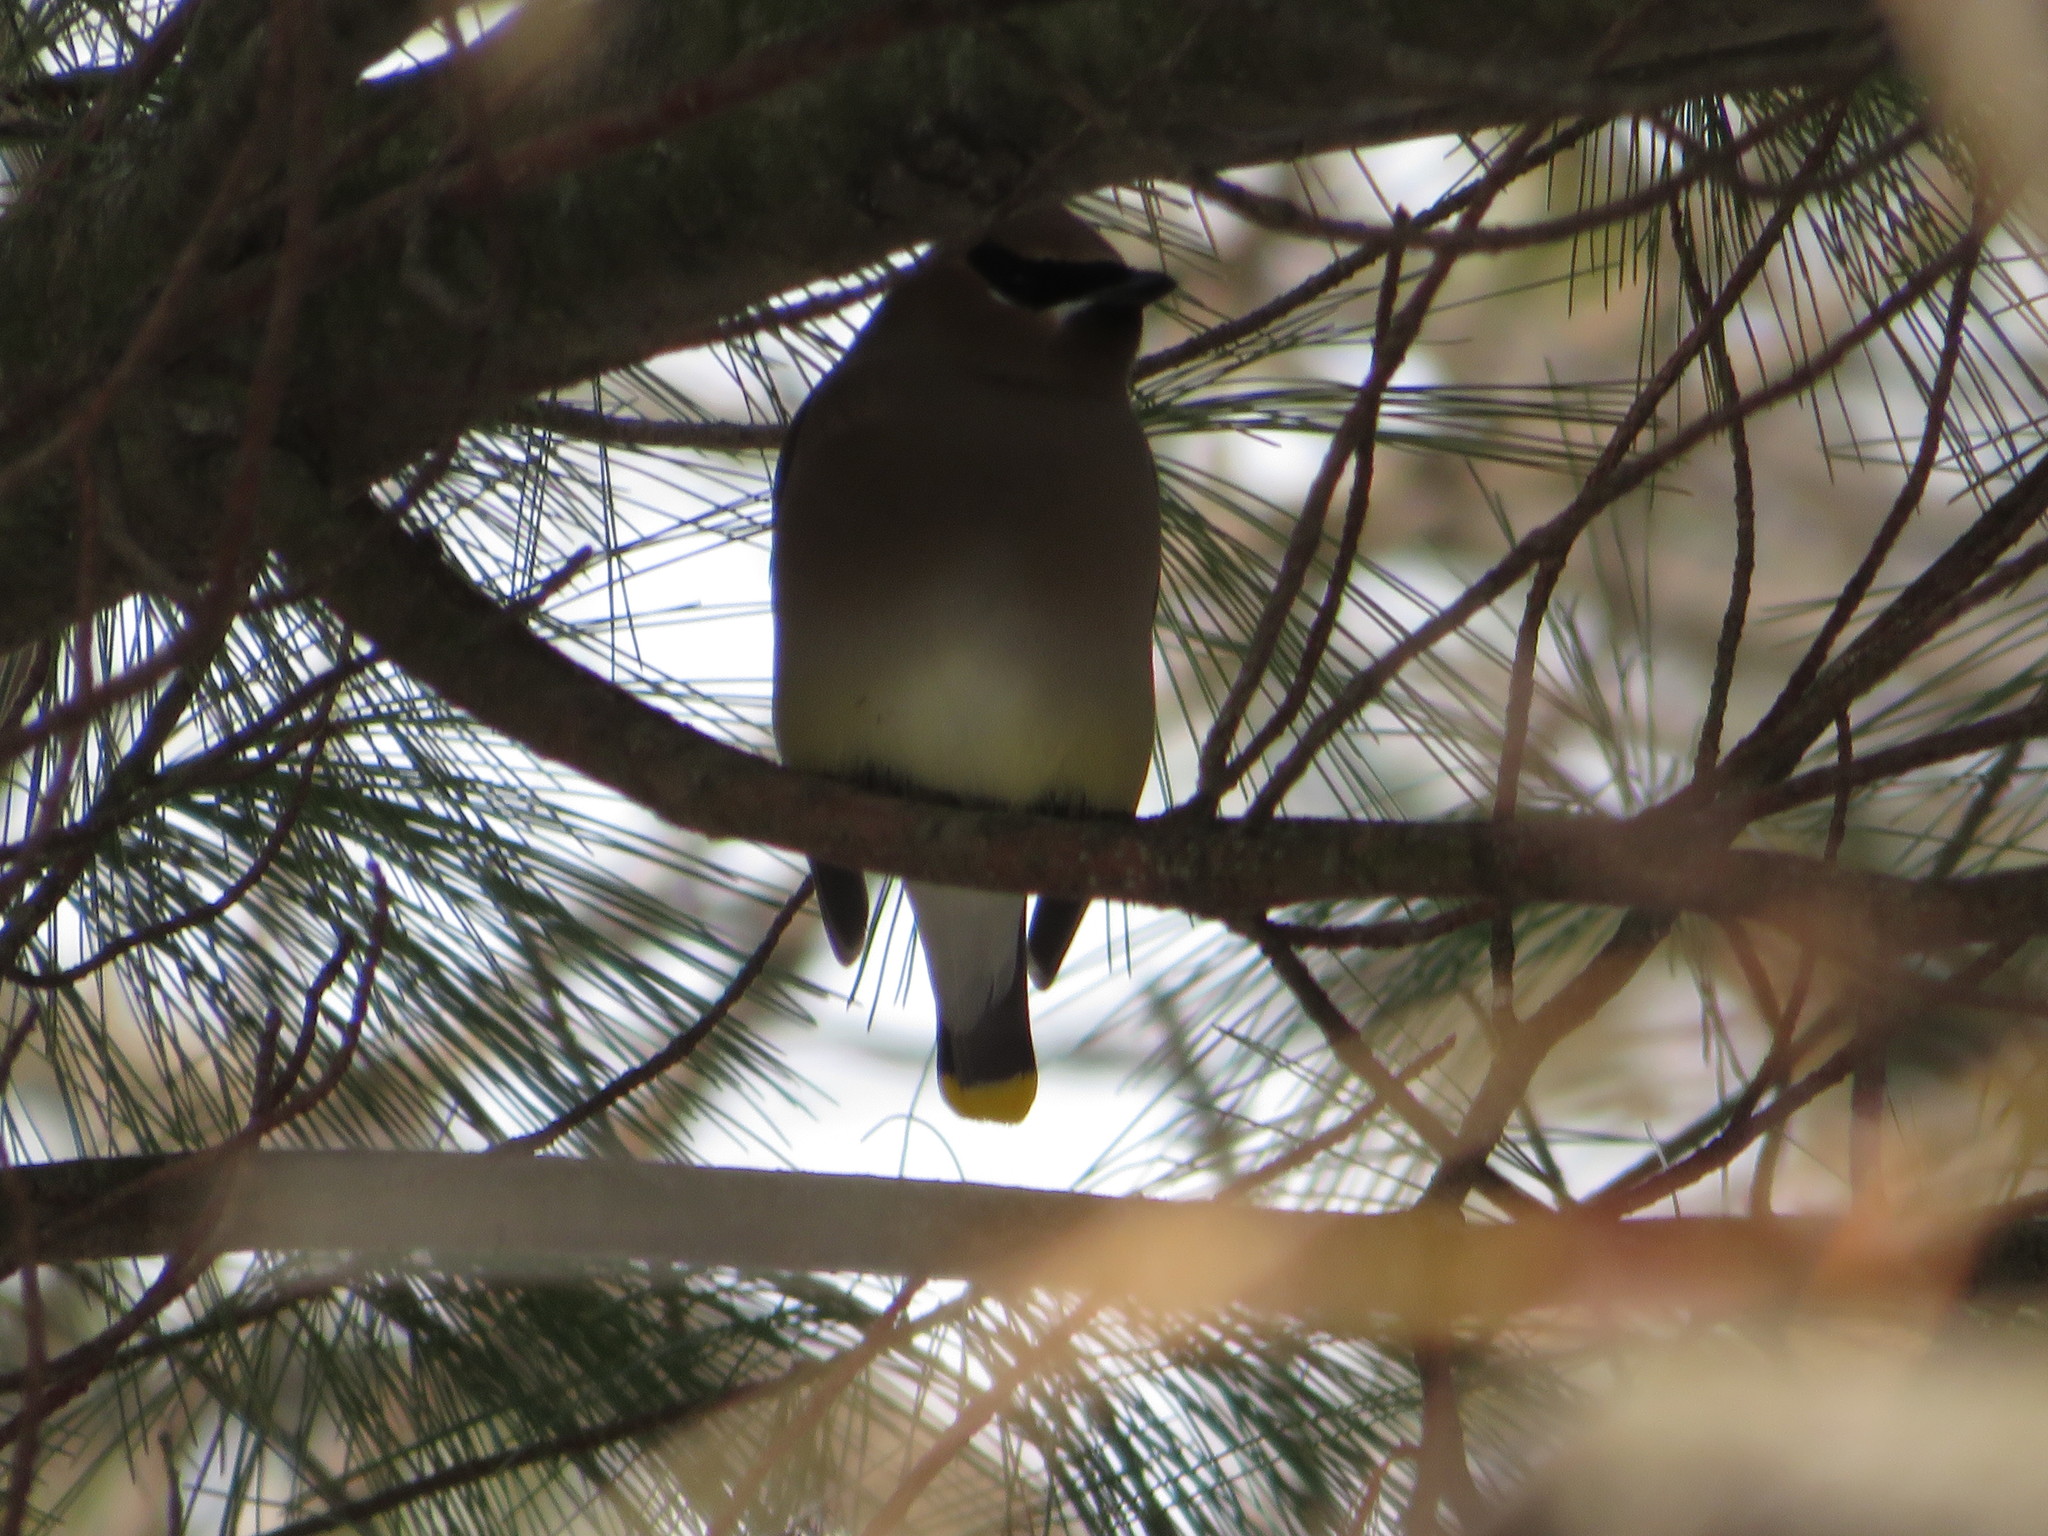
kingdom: Animalia
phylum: Chordata
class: Aves
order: Passeriformes
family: Bombycillidae
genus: Bombycilla
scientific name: Bombycilla cedrorum
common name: Cedar waxwing
